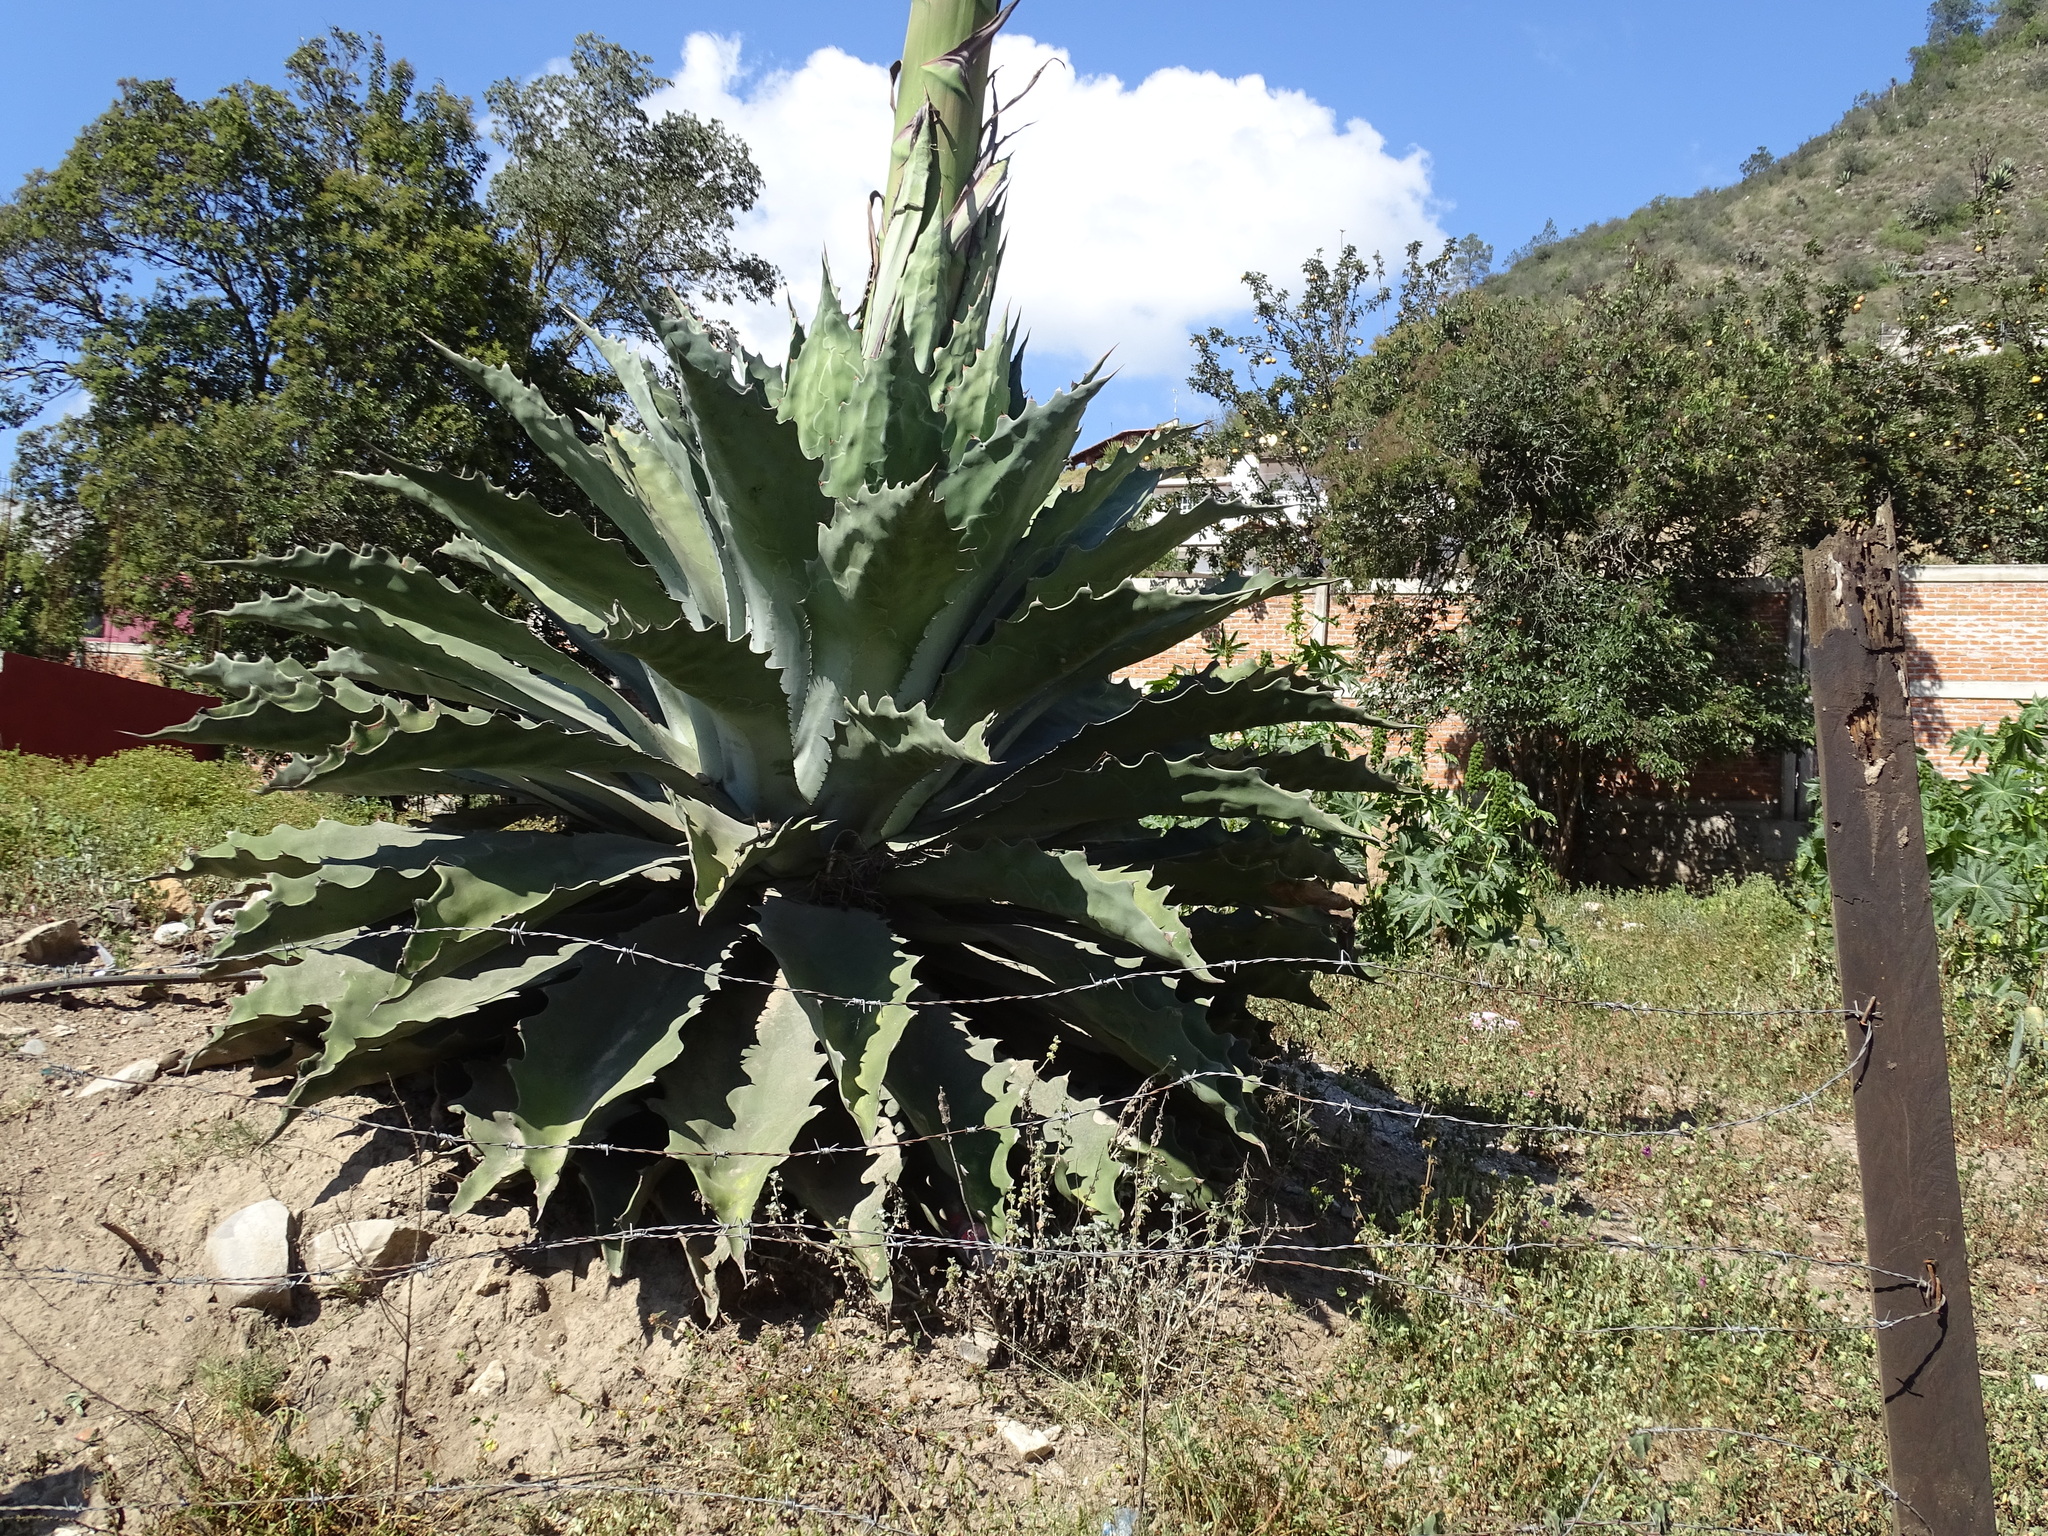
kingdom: Plantae
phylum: Tracheophyta
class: Liliopsida
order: Asparagales
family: Asparagaceae
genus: Agave
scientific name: Agave seemanniana
